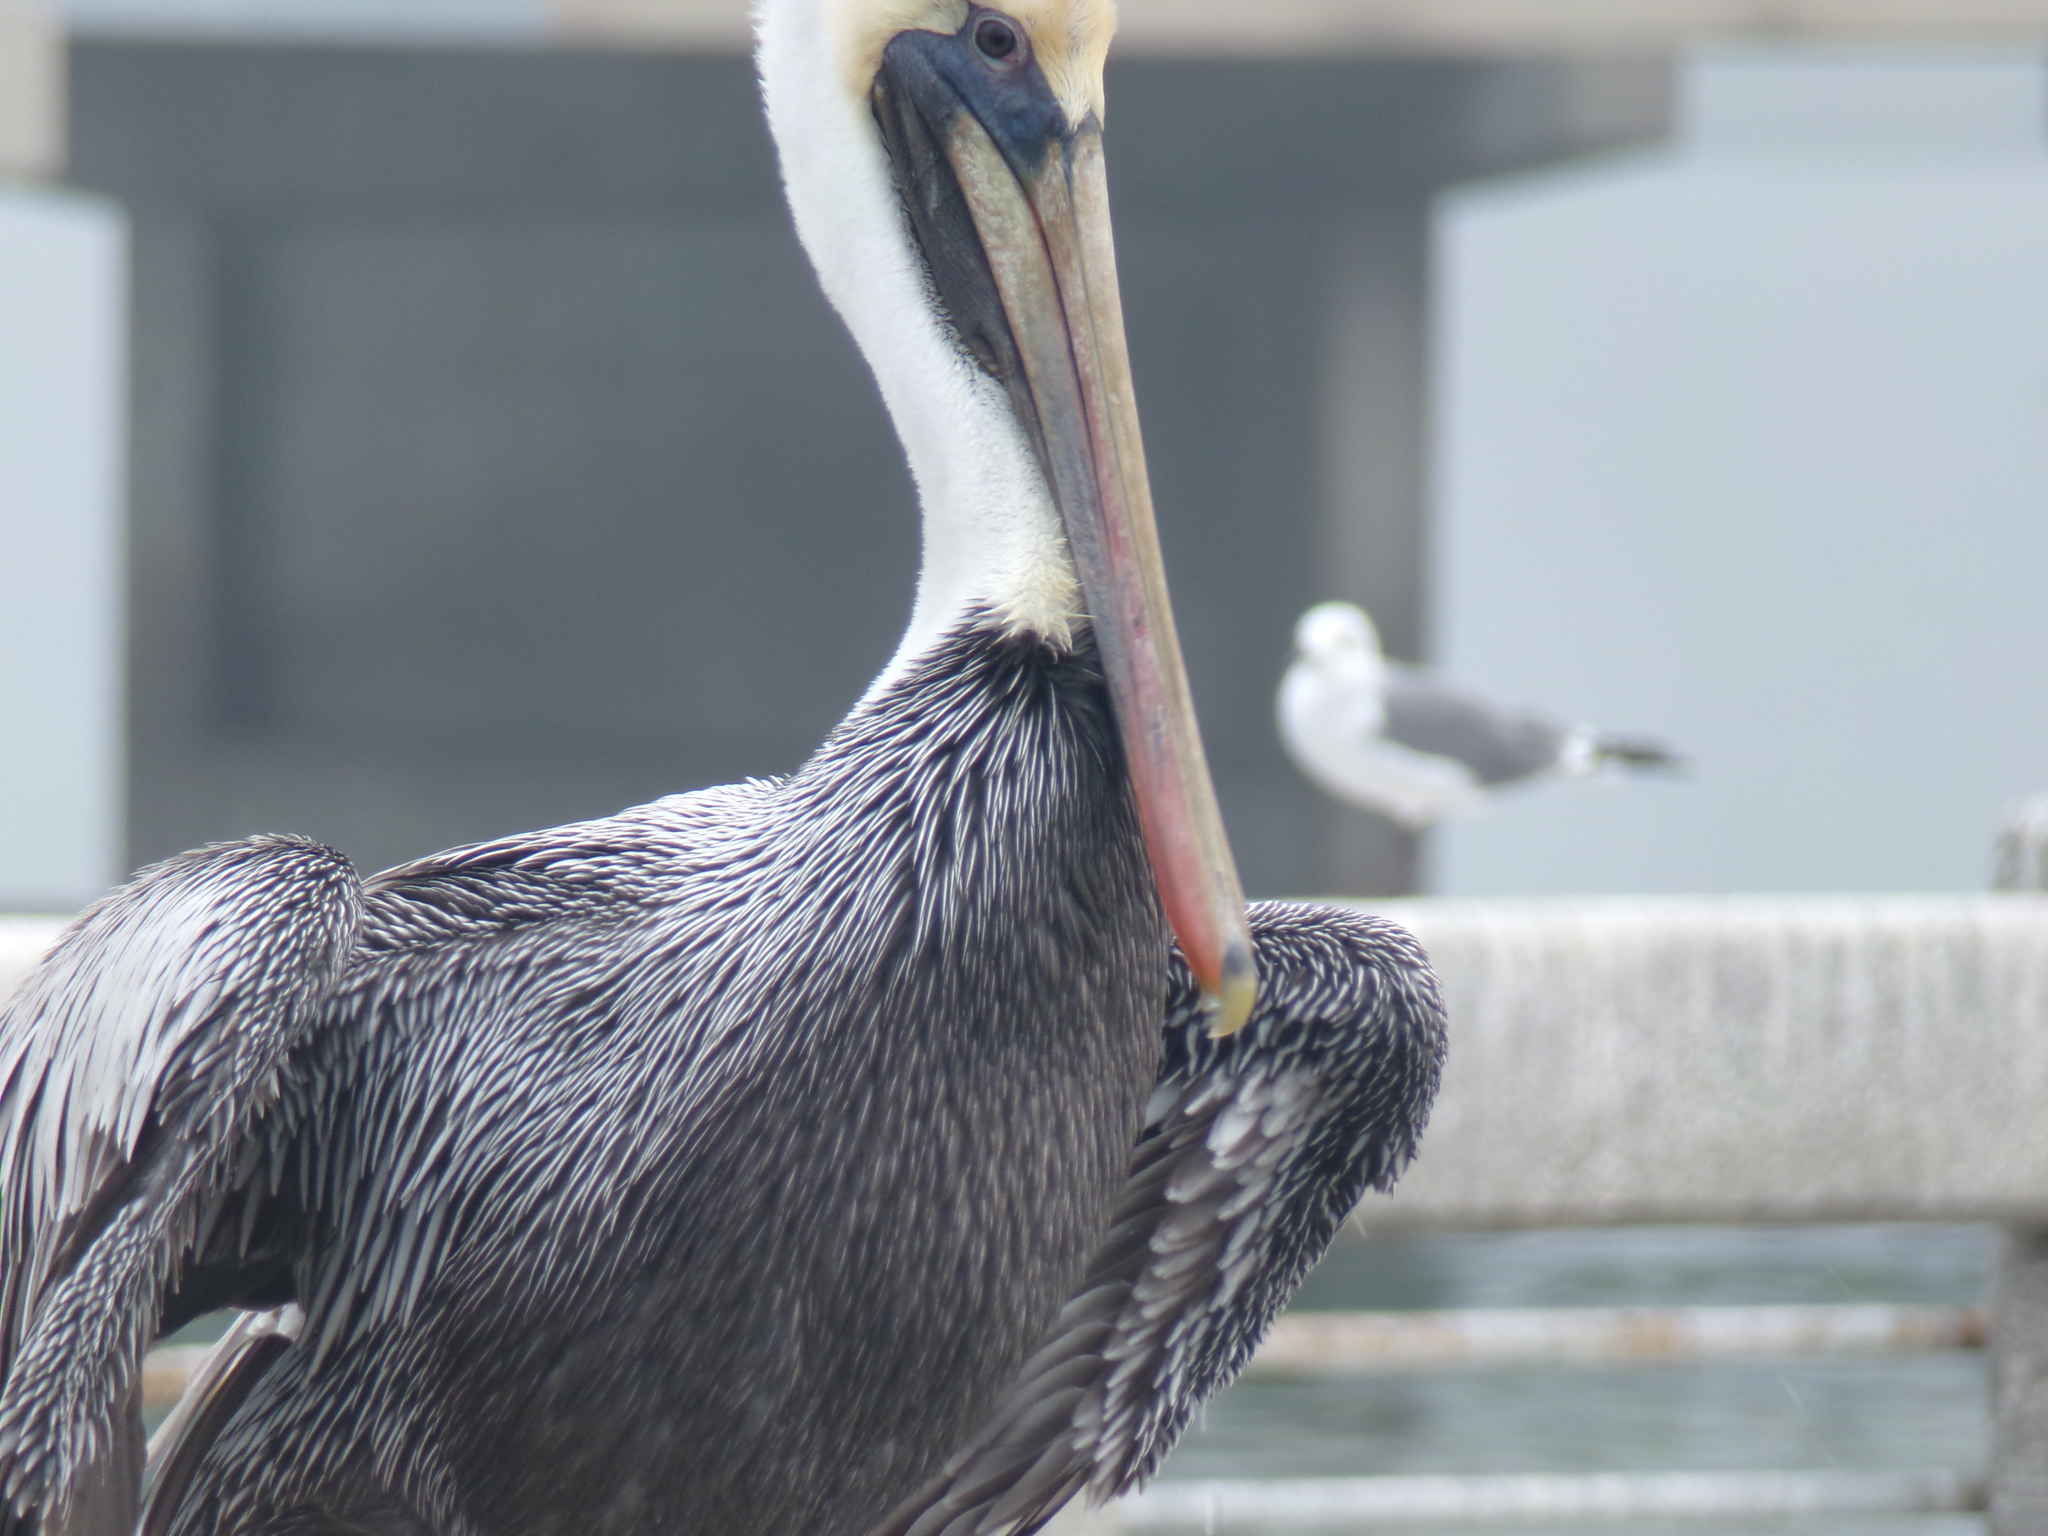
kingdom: Animalia
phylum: Chordata
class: Aves
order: Pelecaniformes
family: Pelecanidae
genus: Pelecanus
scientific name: Pelecanus occidentalis
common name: Brown pelican
